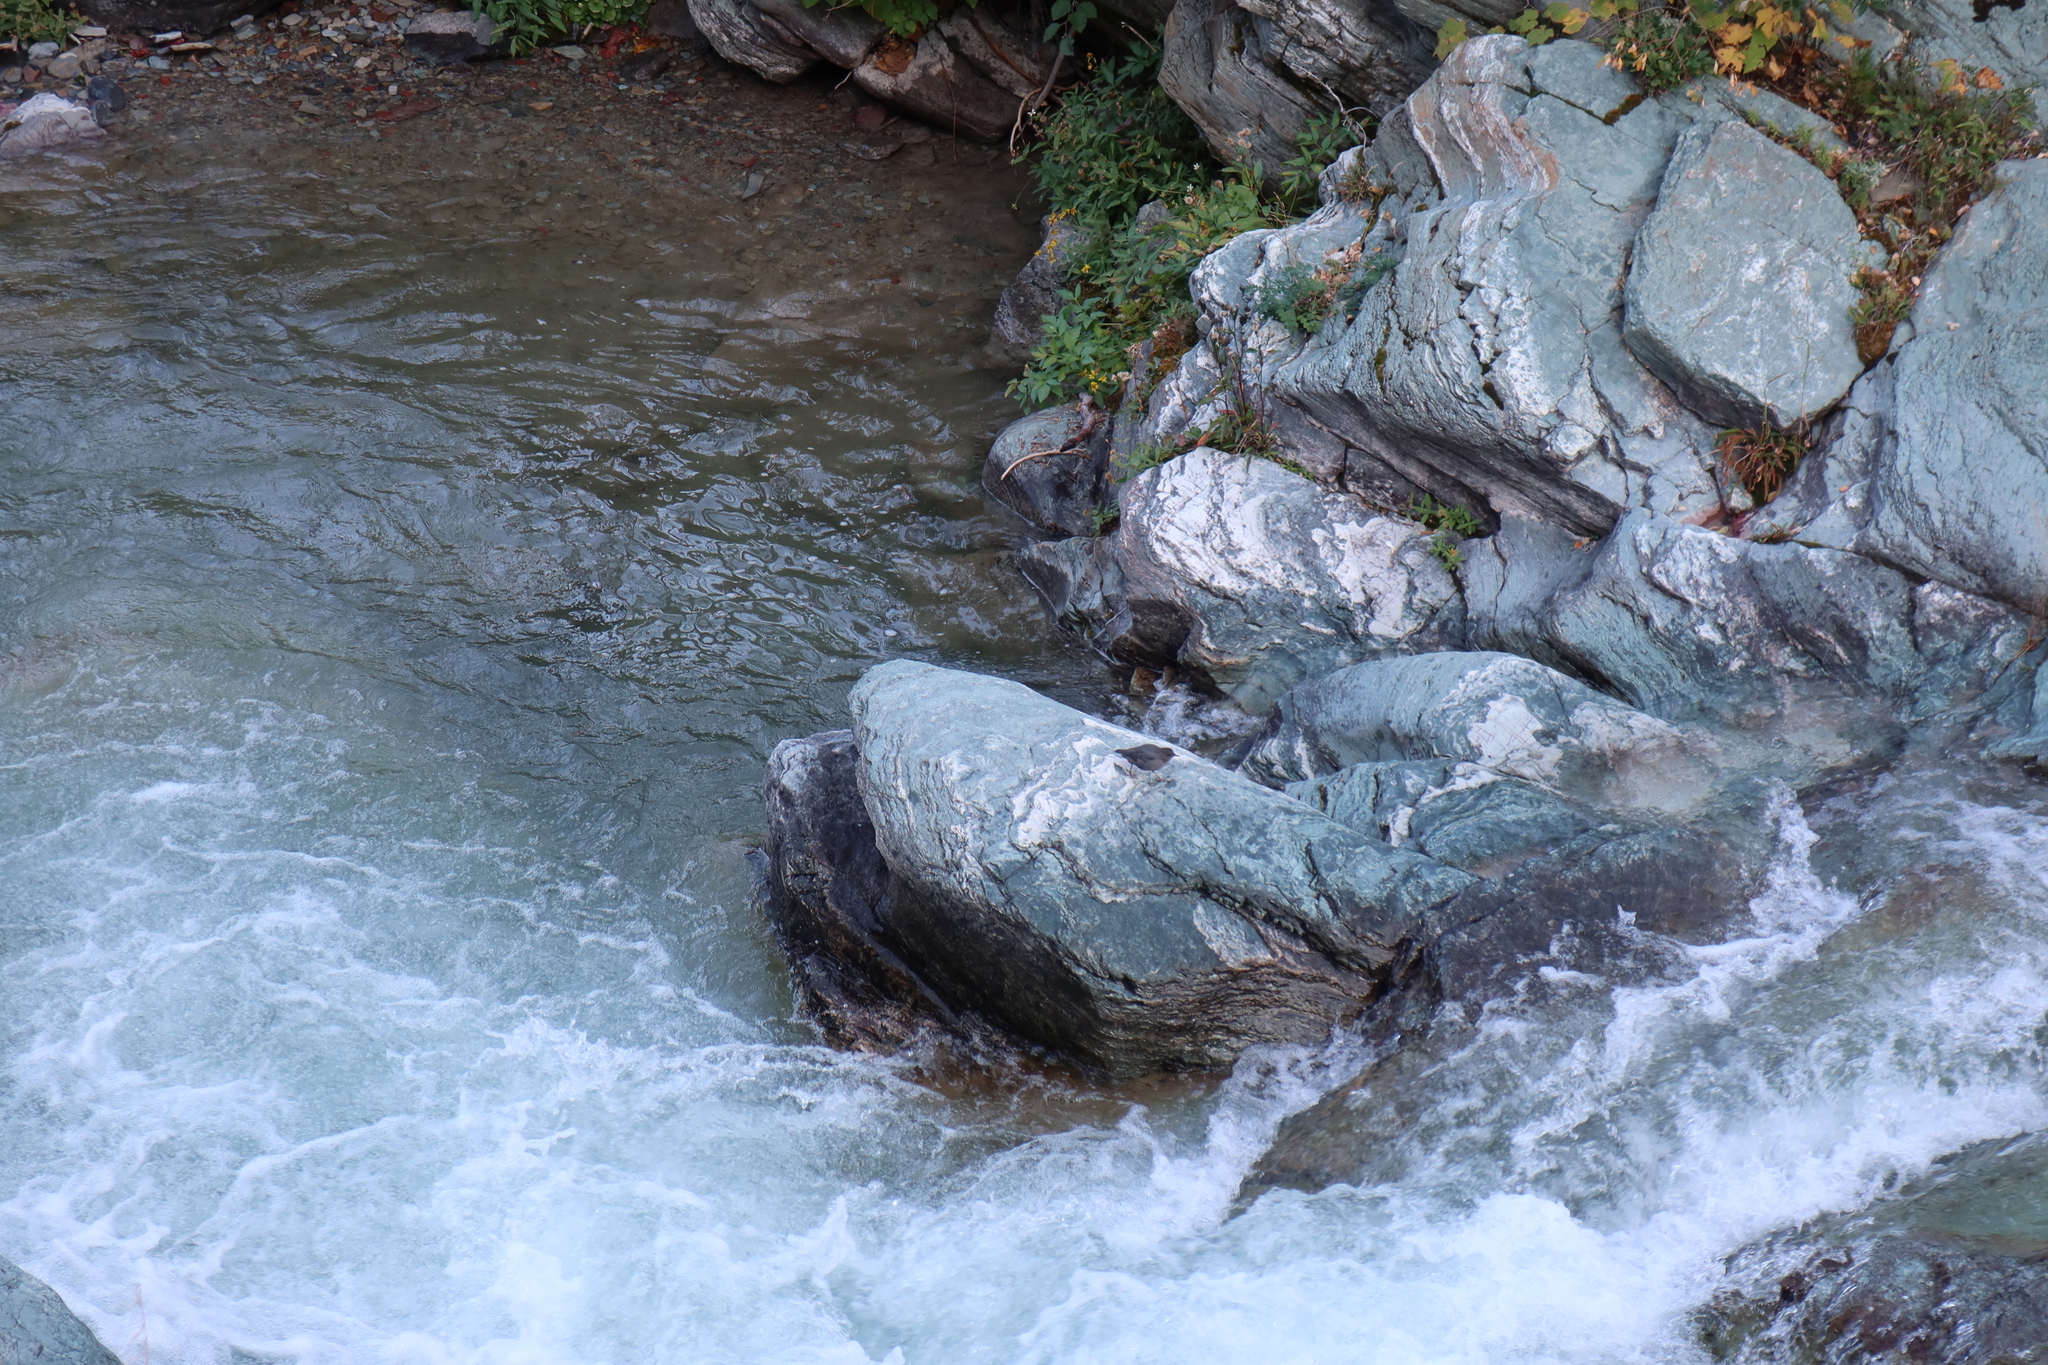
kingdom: Animalia
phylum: Chordata
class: Aves
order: Passeriformes
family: Cinclidae
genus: Cinclus
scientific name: Cinclus mexicanus
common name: American dipper
